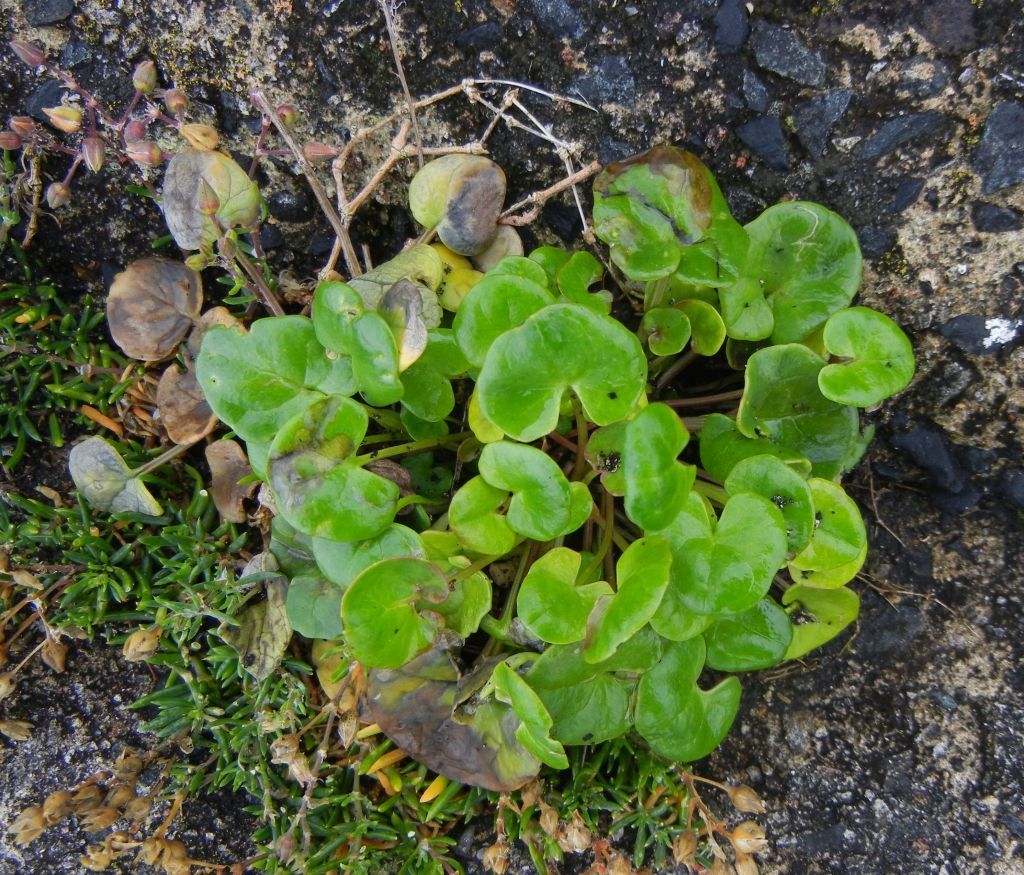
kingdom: Plantae
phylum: Tracheophyta
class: Magnoliopsida
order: Brassicales
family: Brassicaceae
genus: Cochlearia
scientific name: Cochlearia officinalis
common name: Scurvy-grass
